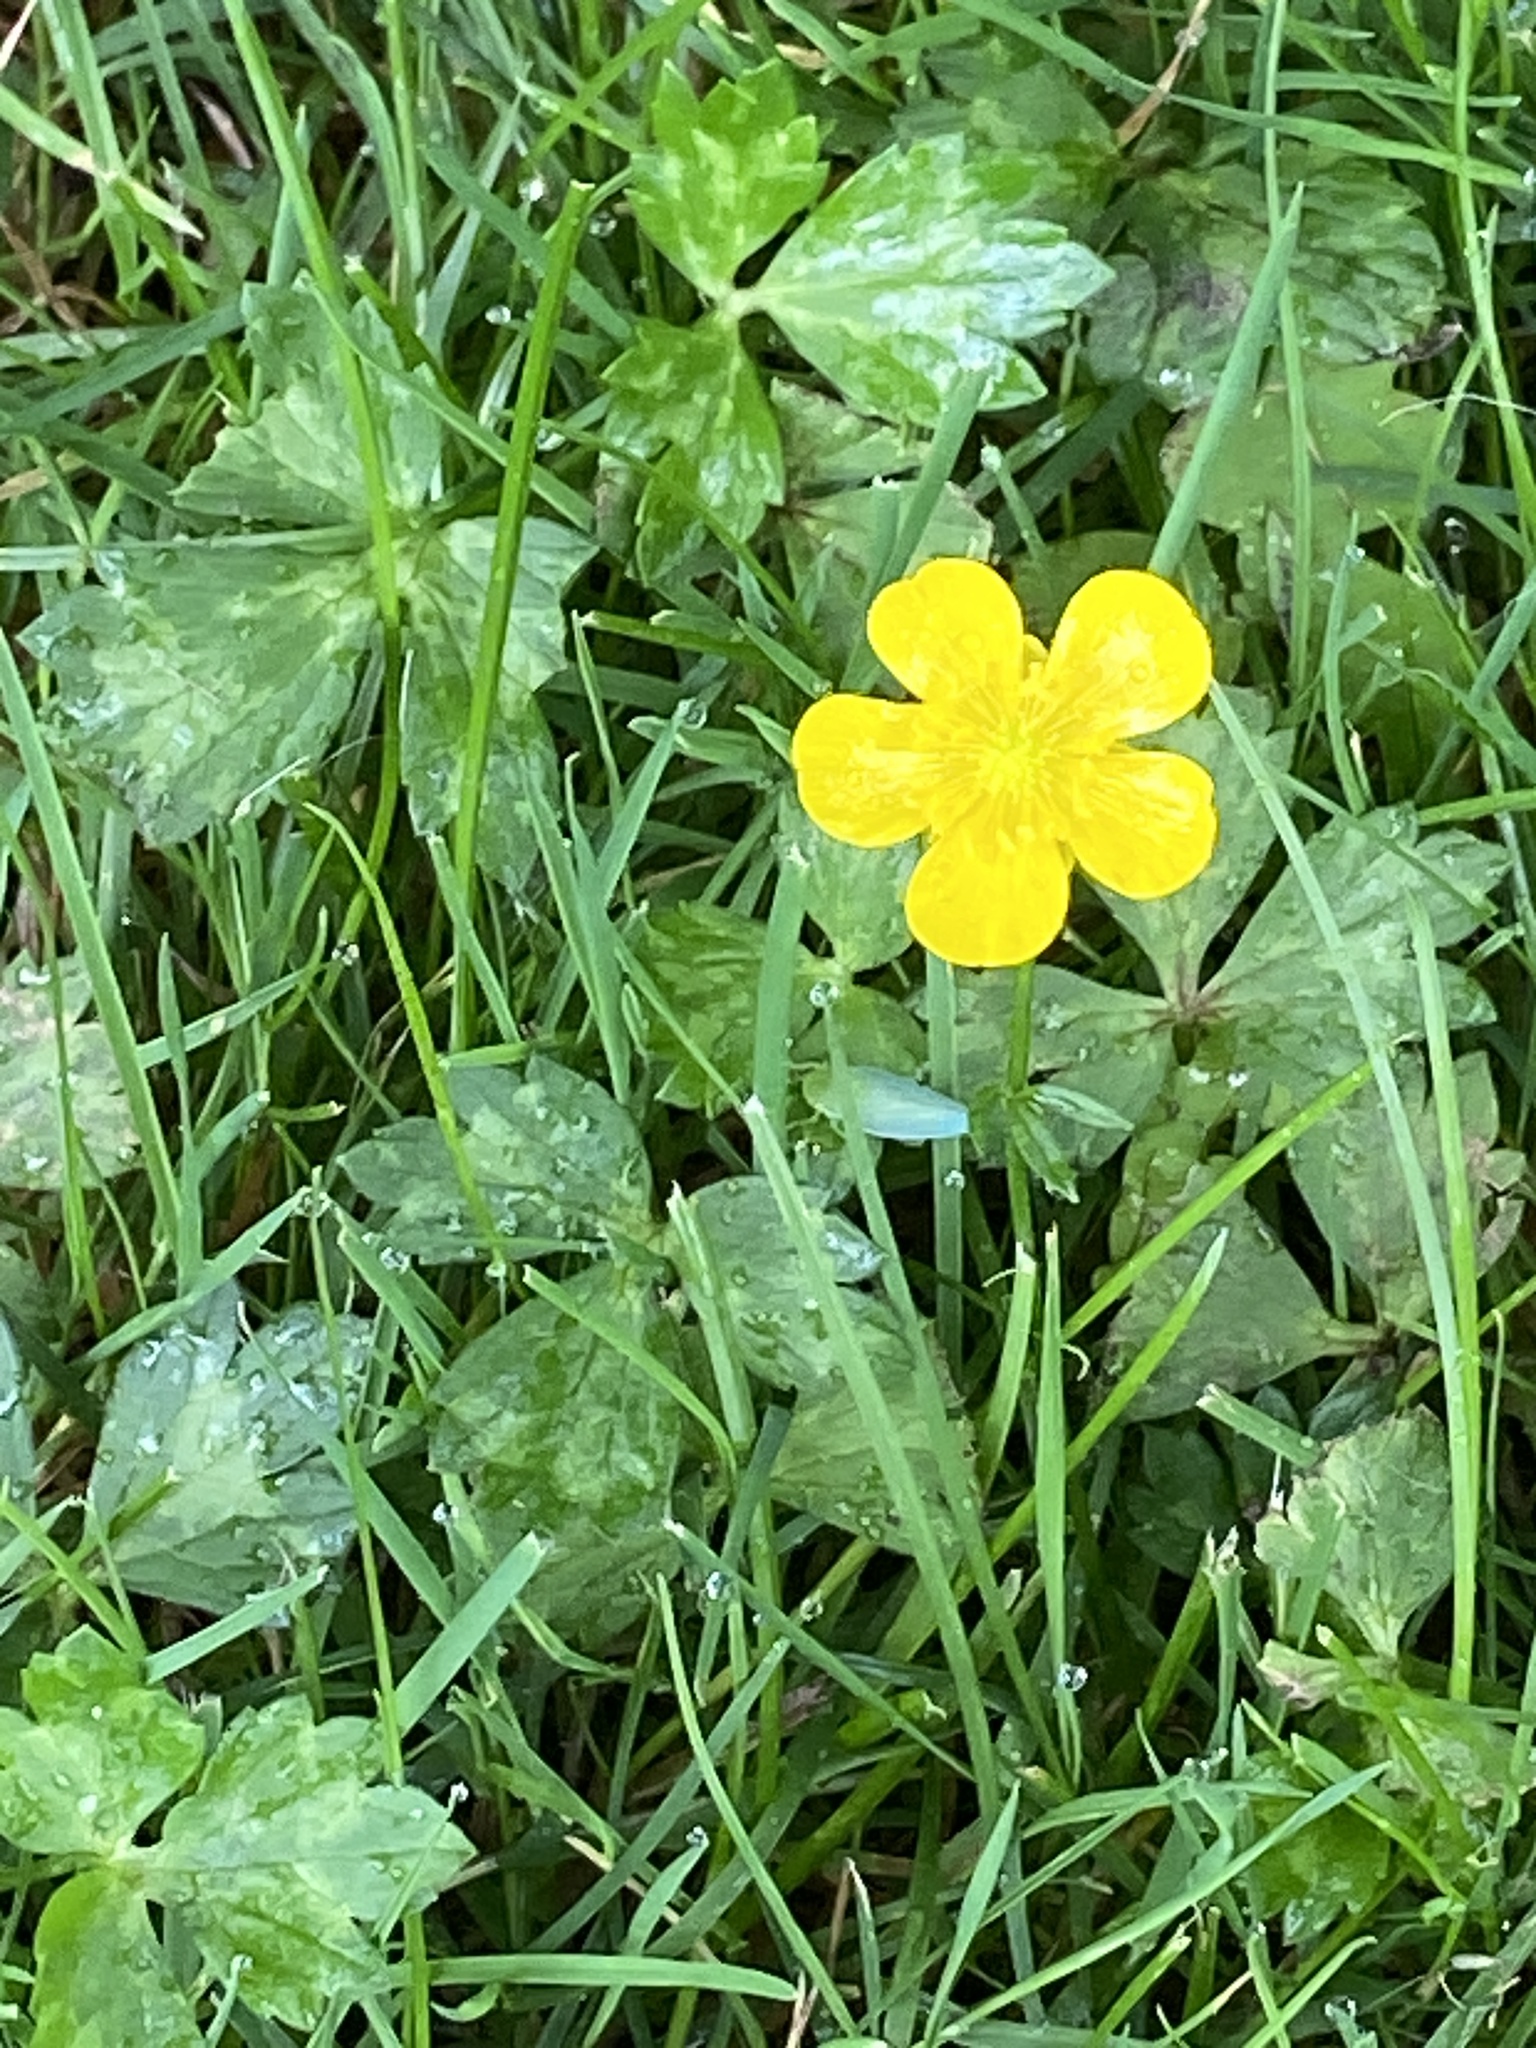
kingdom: Plantae
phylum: Tracheophyta
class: Magnoliopsida
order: Ranunculales
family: Ranunculaceae
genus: Ranunculus
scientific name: Ranunculus repens
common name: Creeping buttercup
